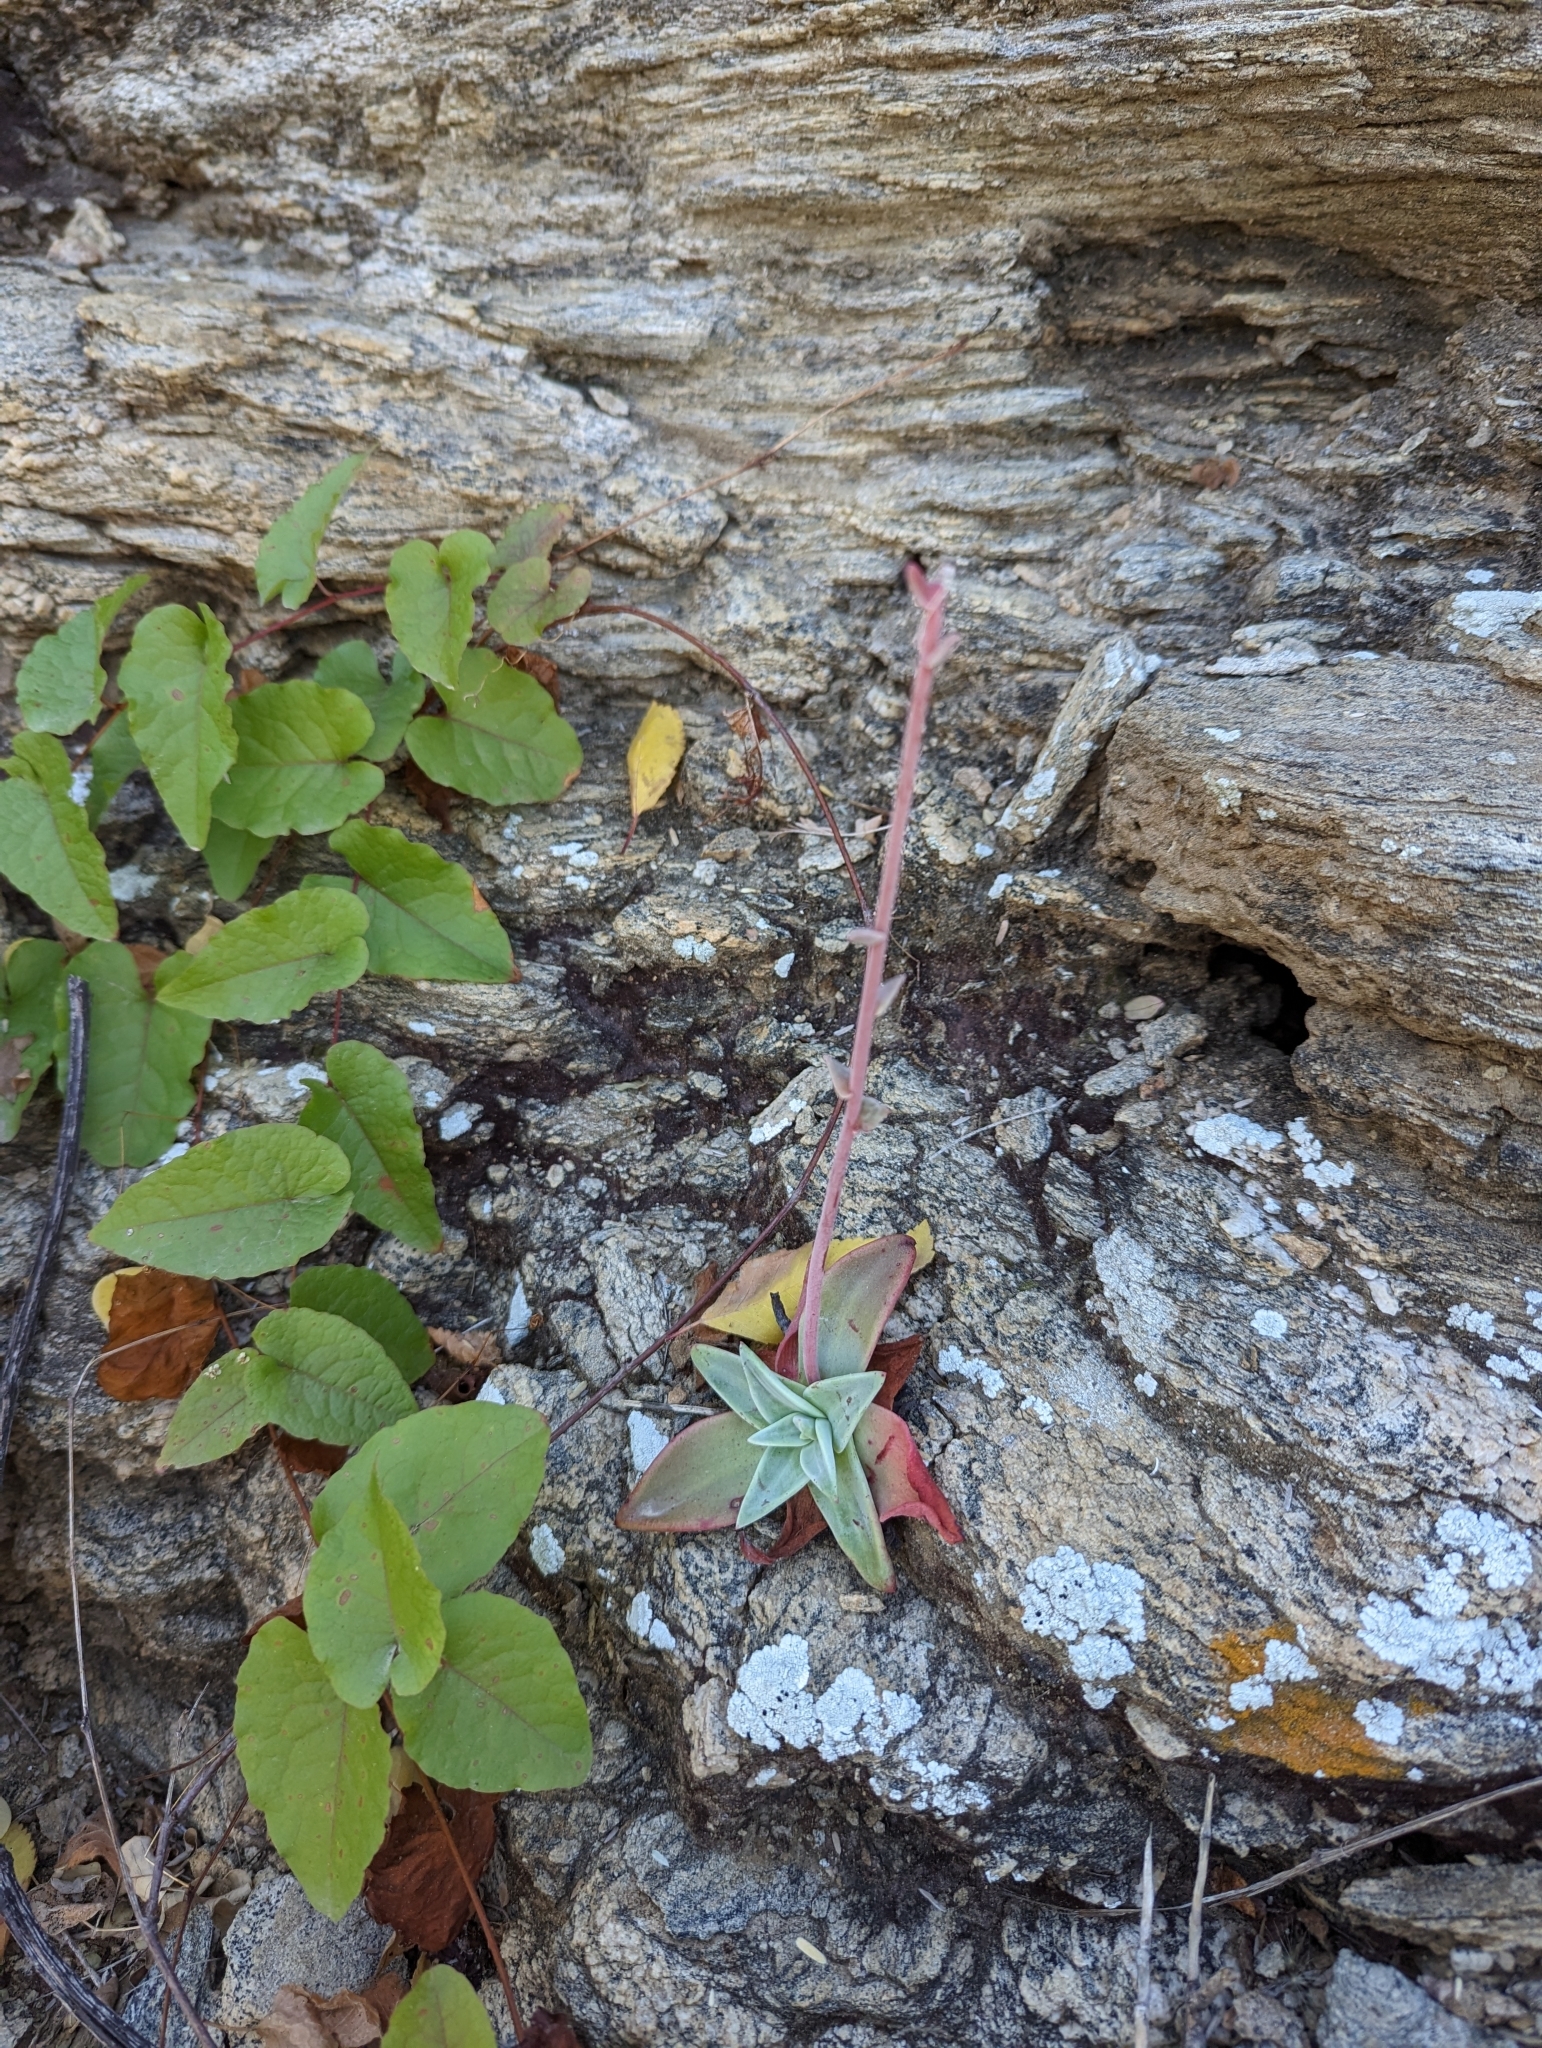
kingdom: Plantae
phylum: Tracheophyta
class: Magnoliopsida
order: Saxifragales
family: Crassulaceae
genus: Dudleya
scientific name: Dudleya nubigena
